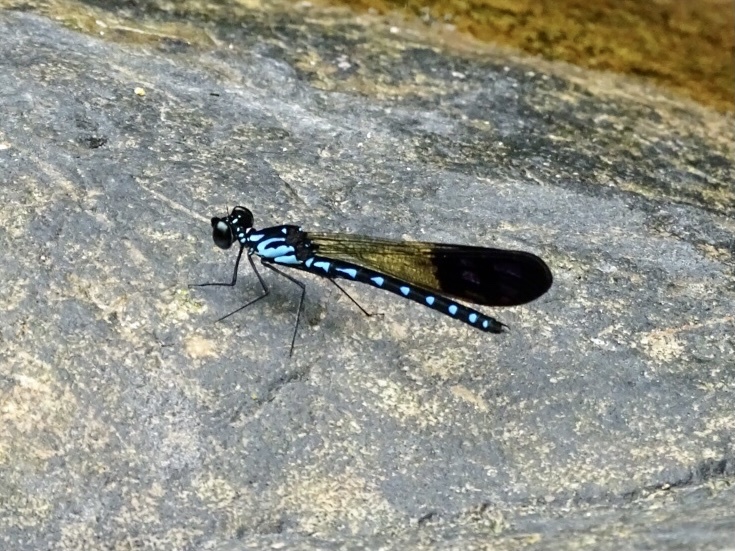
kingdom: Animalia
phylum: Arthropoda
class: Insecta
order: Odonata
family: Chlorocyphidae
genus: Heliocypha
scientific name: Heliocypha perforata
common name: Common blue jewel
